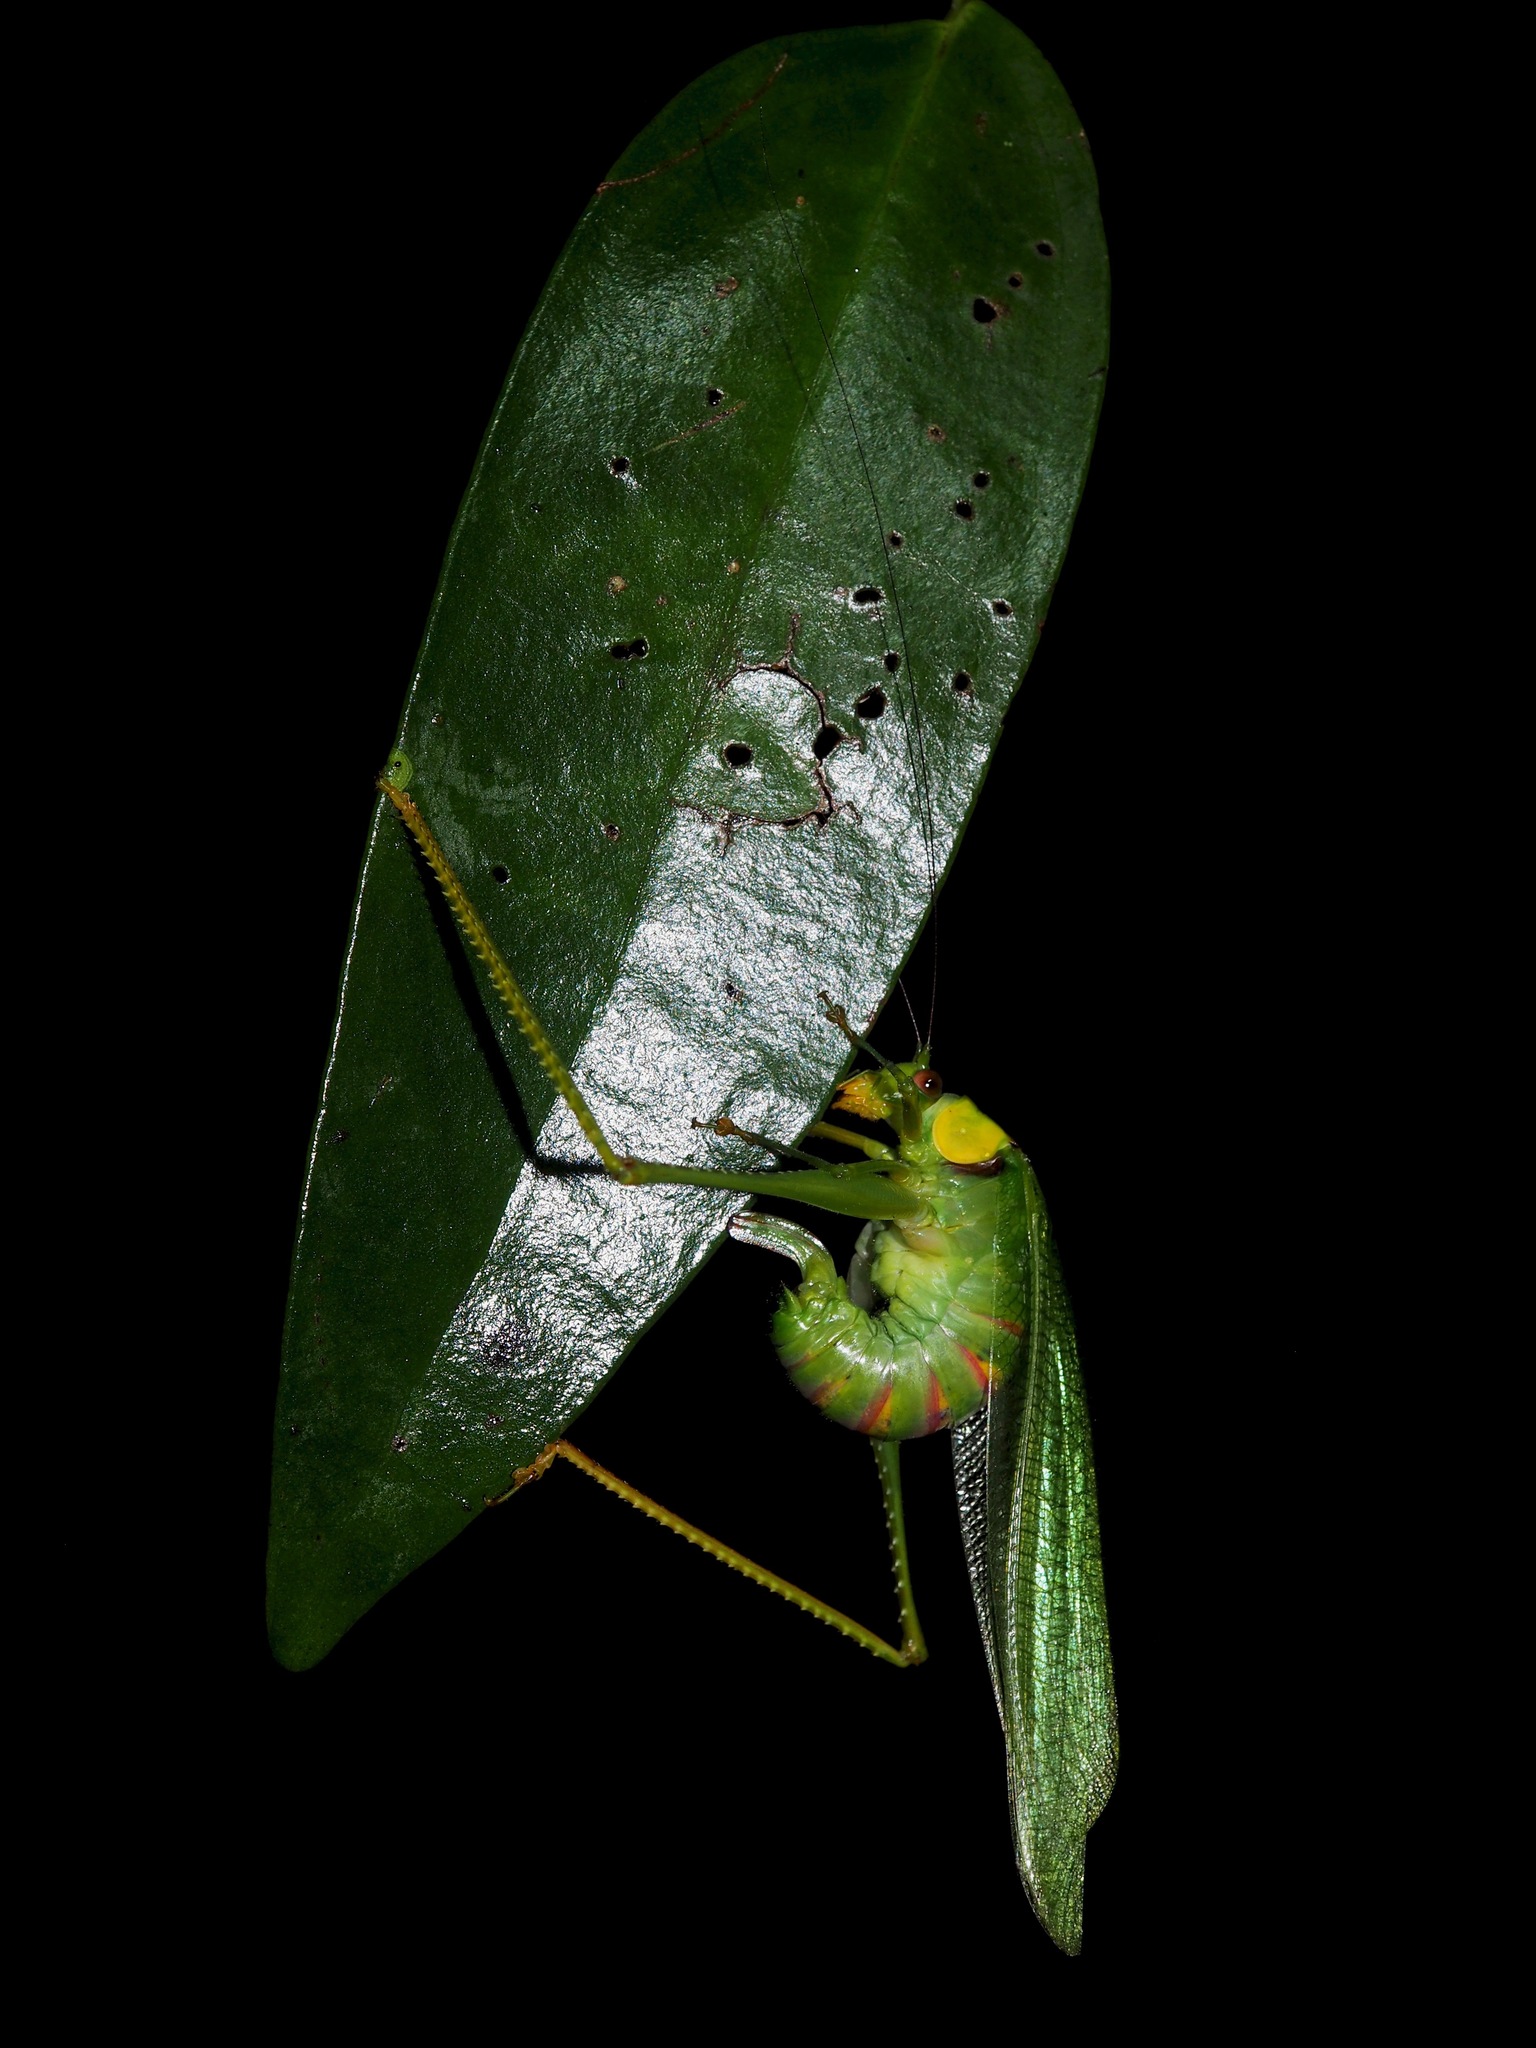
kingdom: Animalia
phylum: Arthropoda
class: Insecta
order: Orthoptera
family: Tettigoniidae
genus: Euceraia
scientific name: Euceraia atryx
